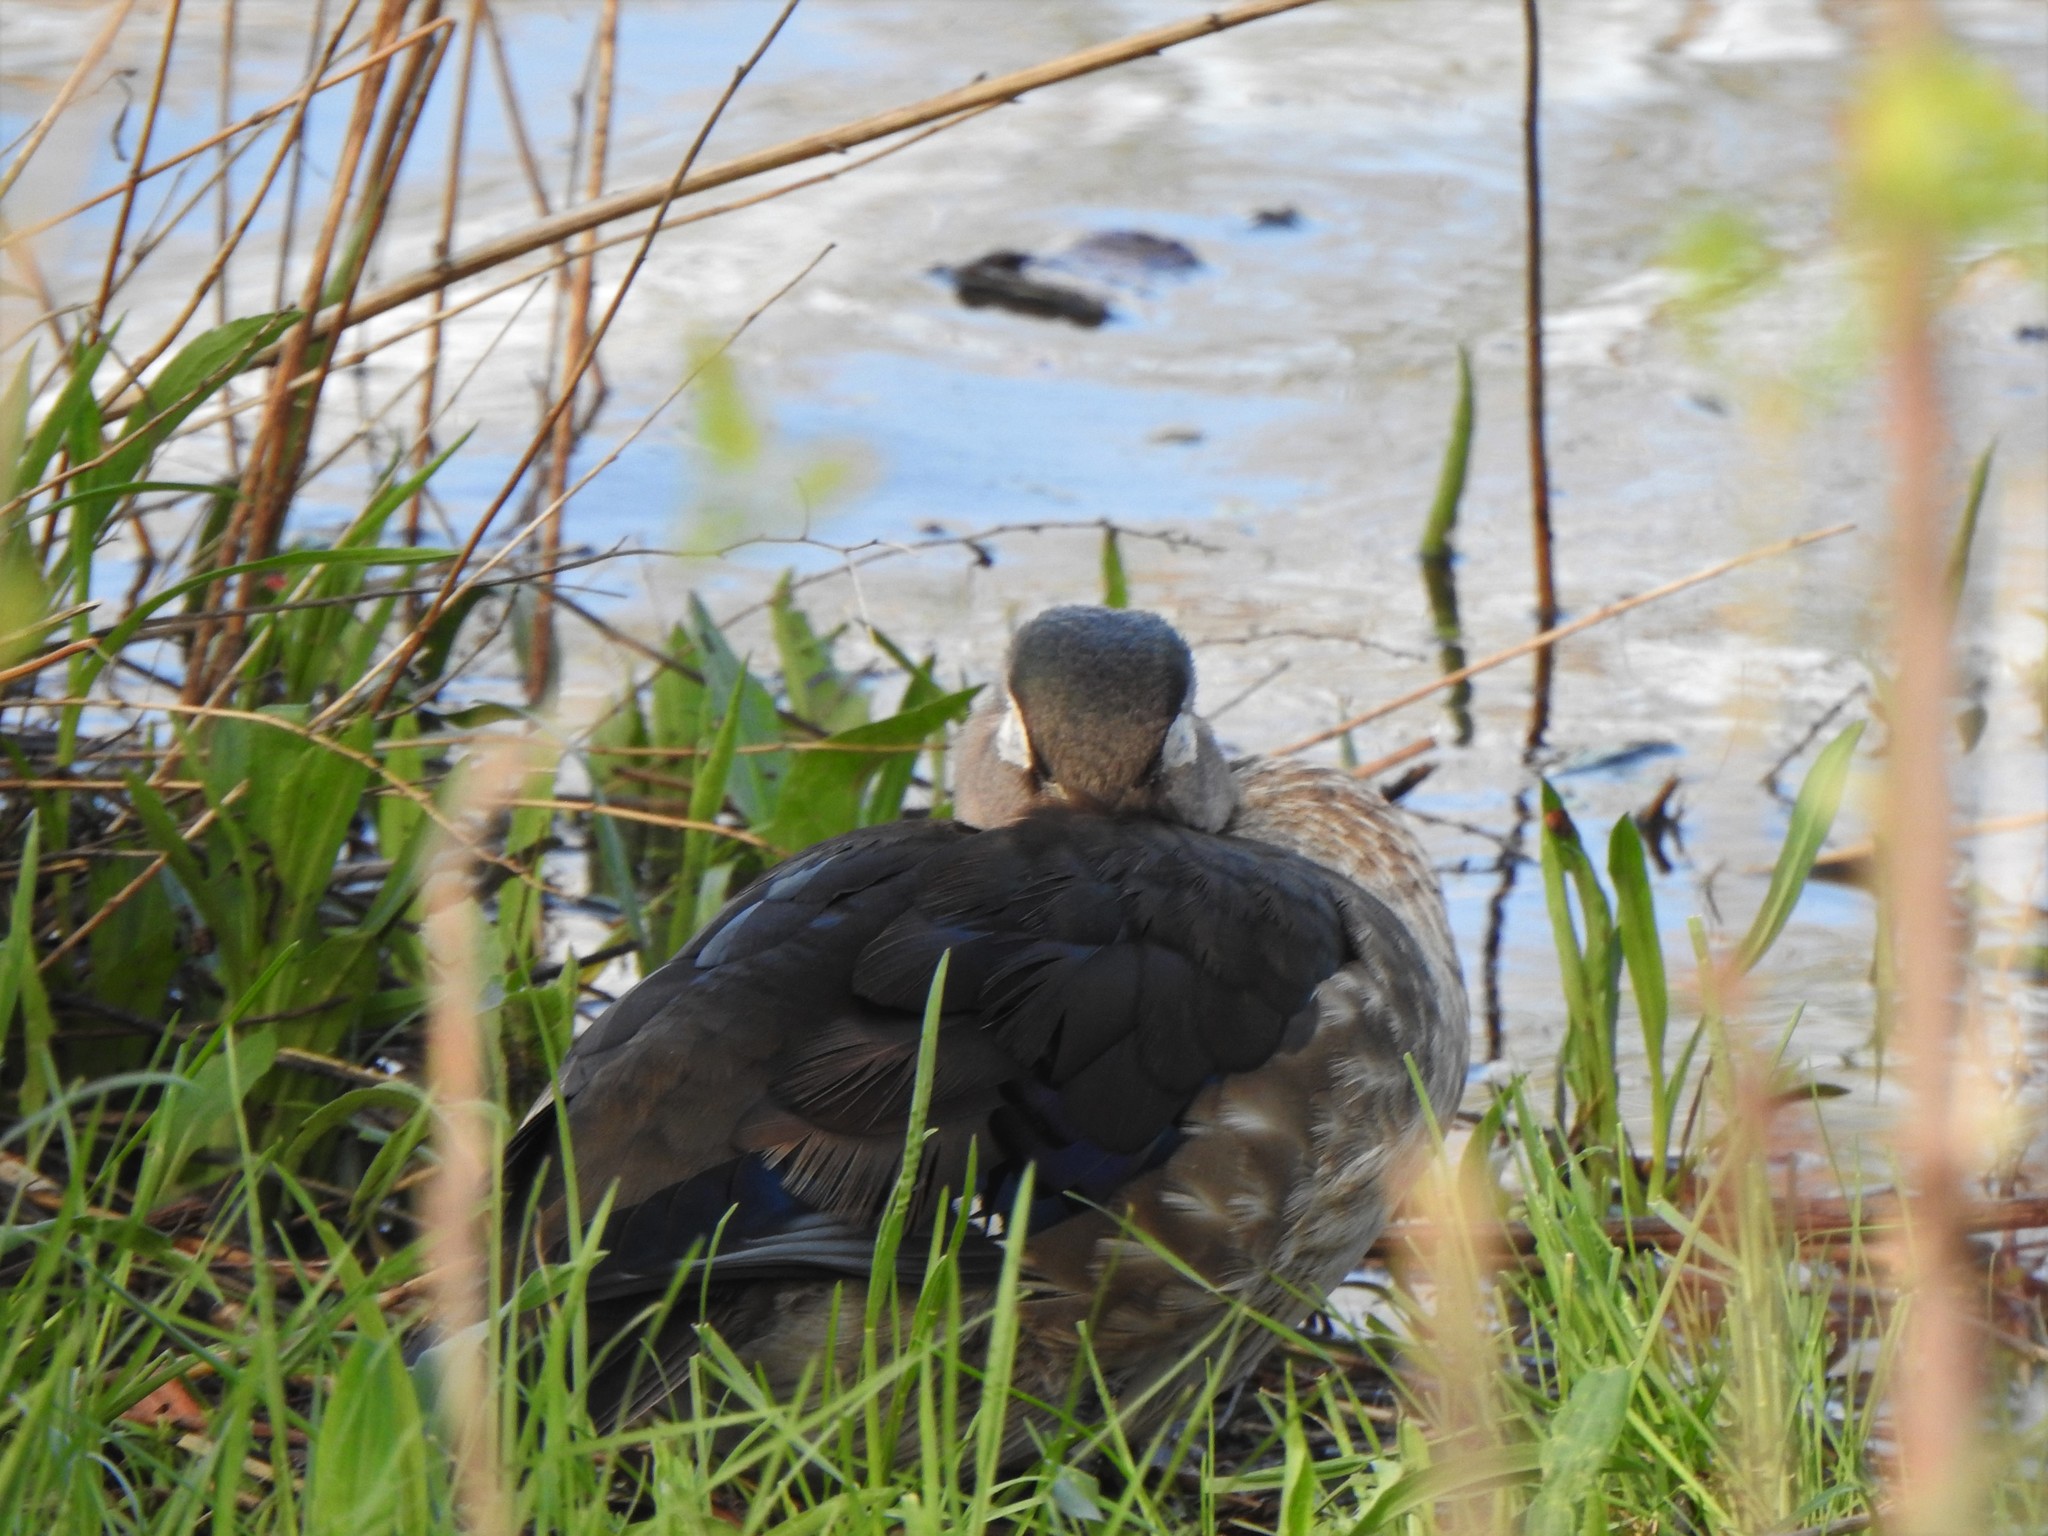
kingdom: Animalia
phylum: Chordata
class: Aves
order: Anseriformes
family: Anatidae
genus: Aix
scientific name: Aix sponsa
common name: Wood duck
